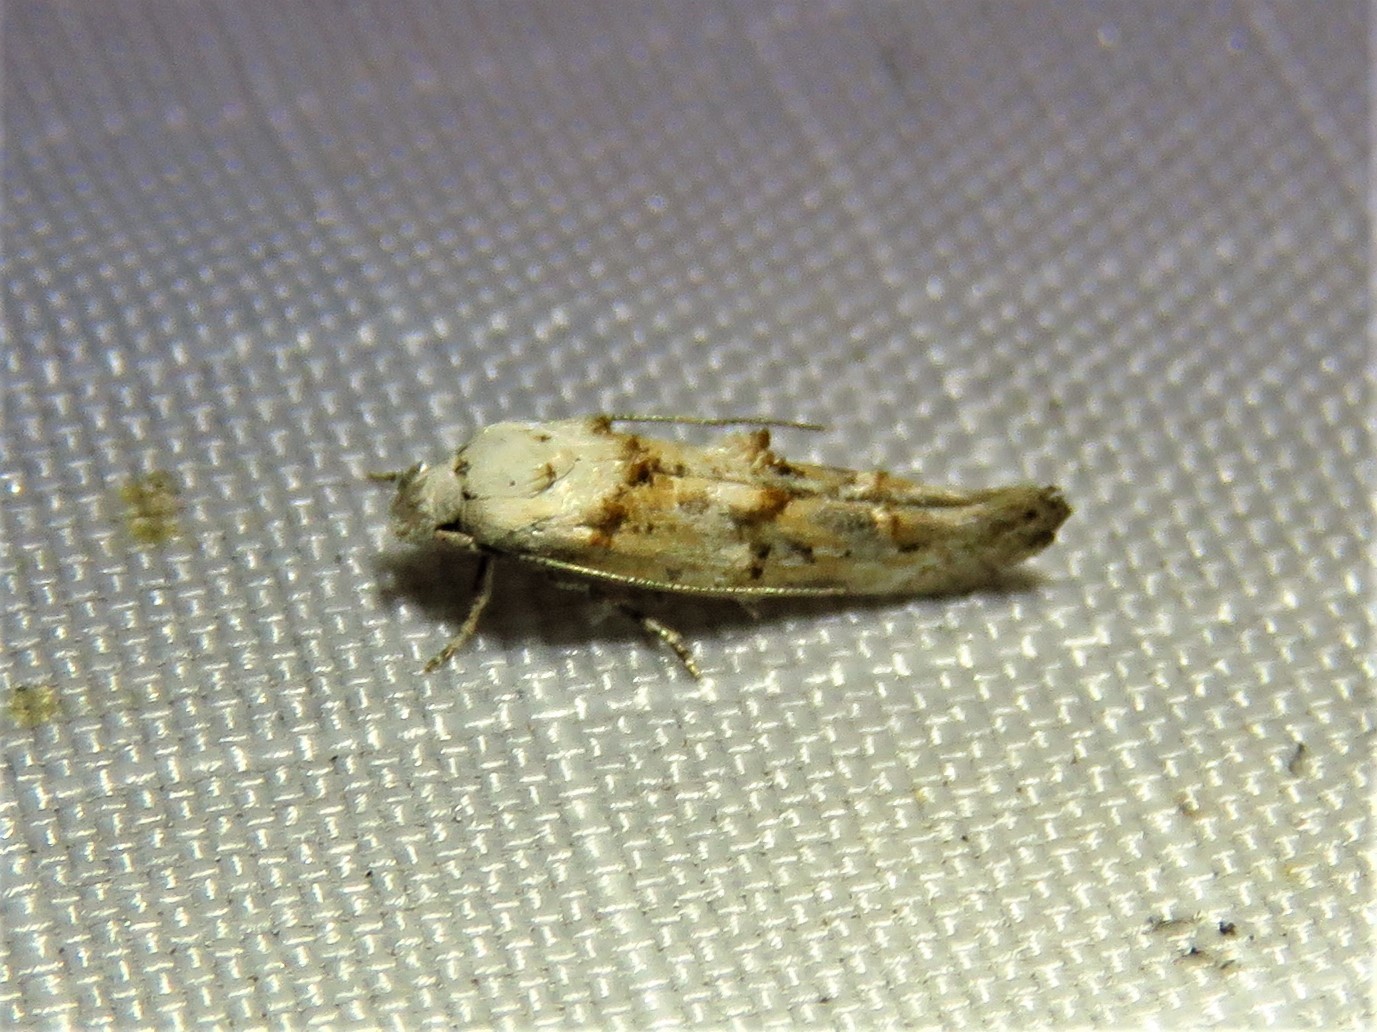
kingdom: Animalia
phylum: Arthropoda
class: Insecta
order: Lepidoptera
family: Momphidae
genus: Mompha
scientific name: Mompha albocapitella
